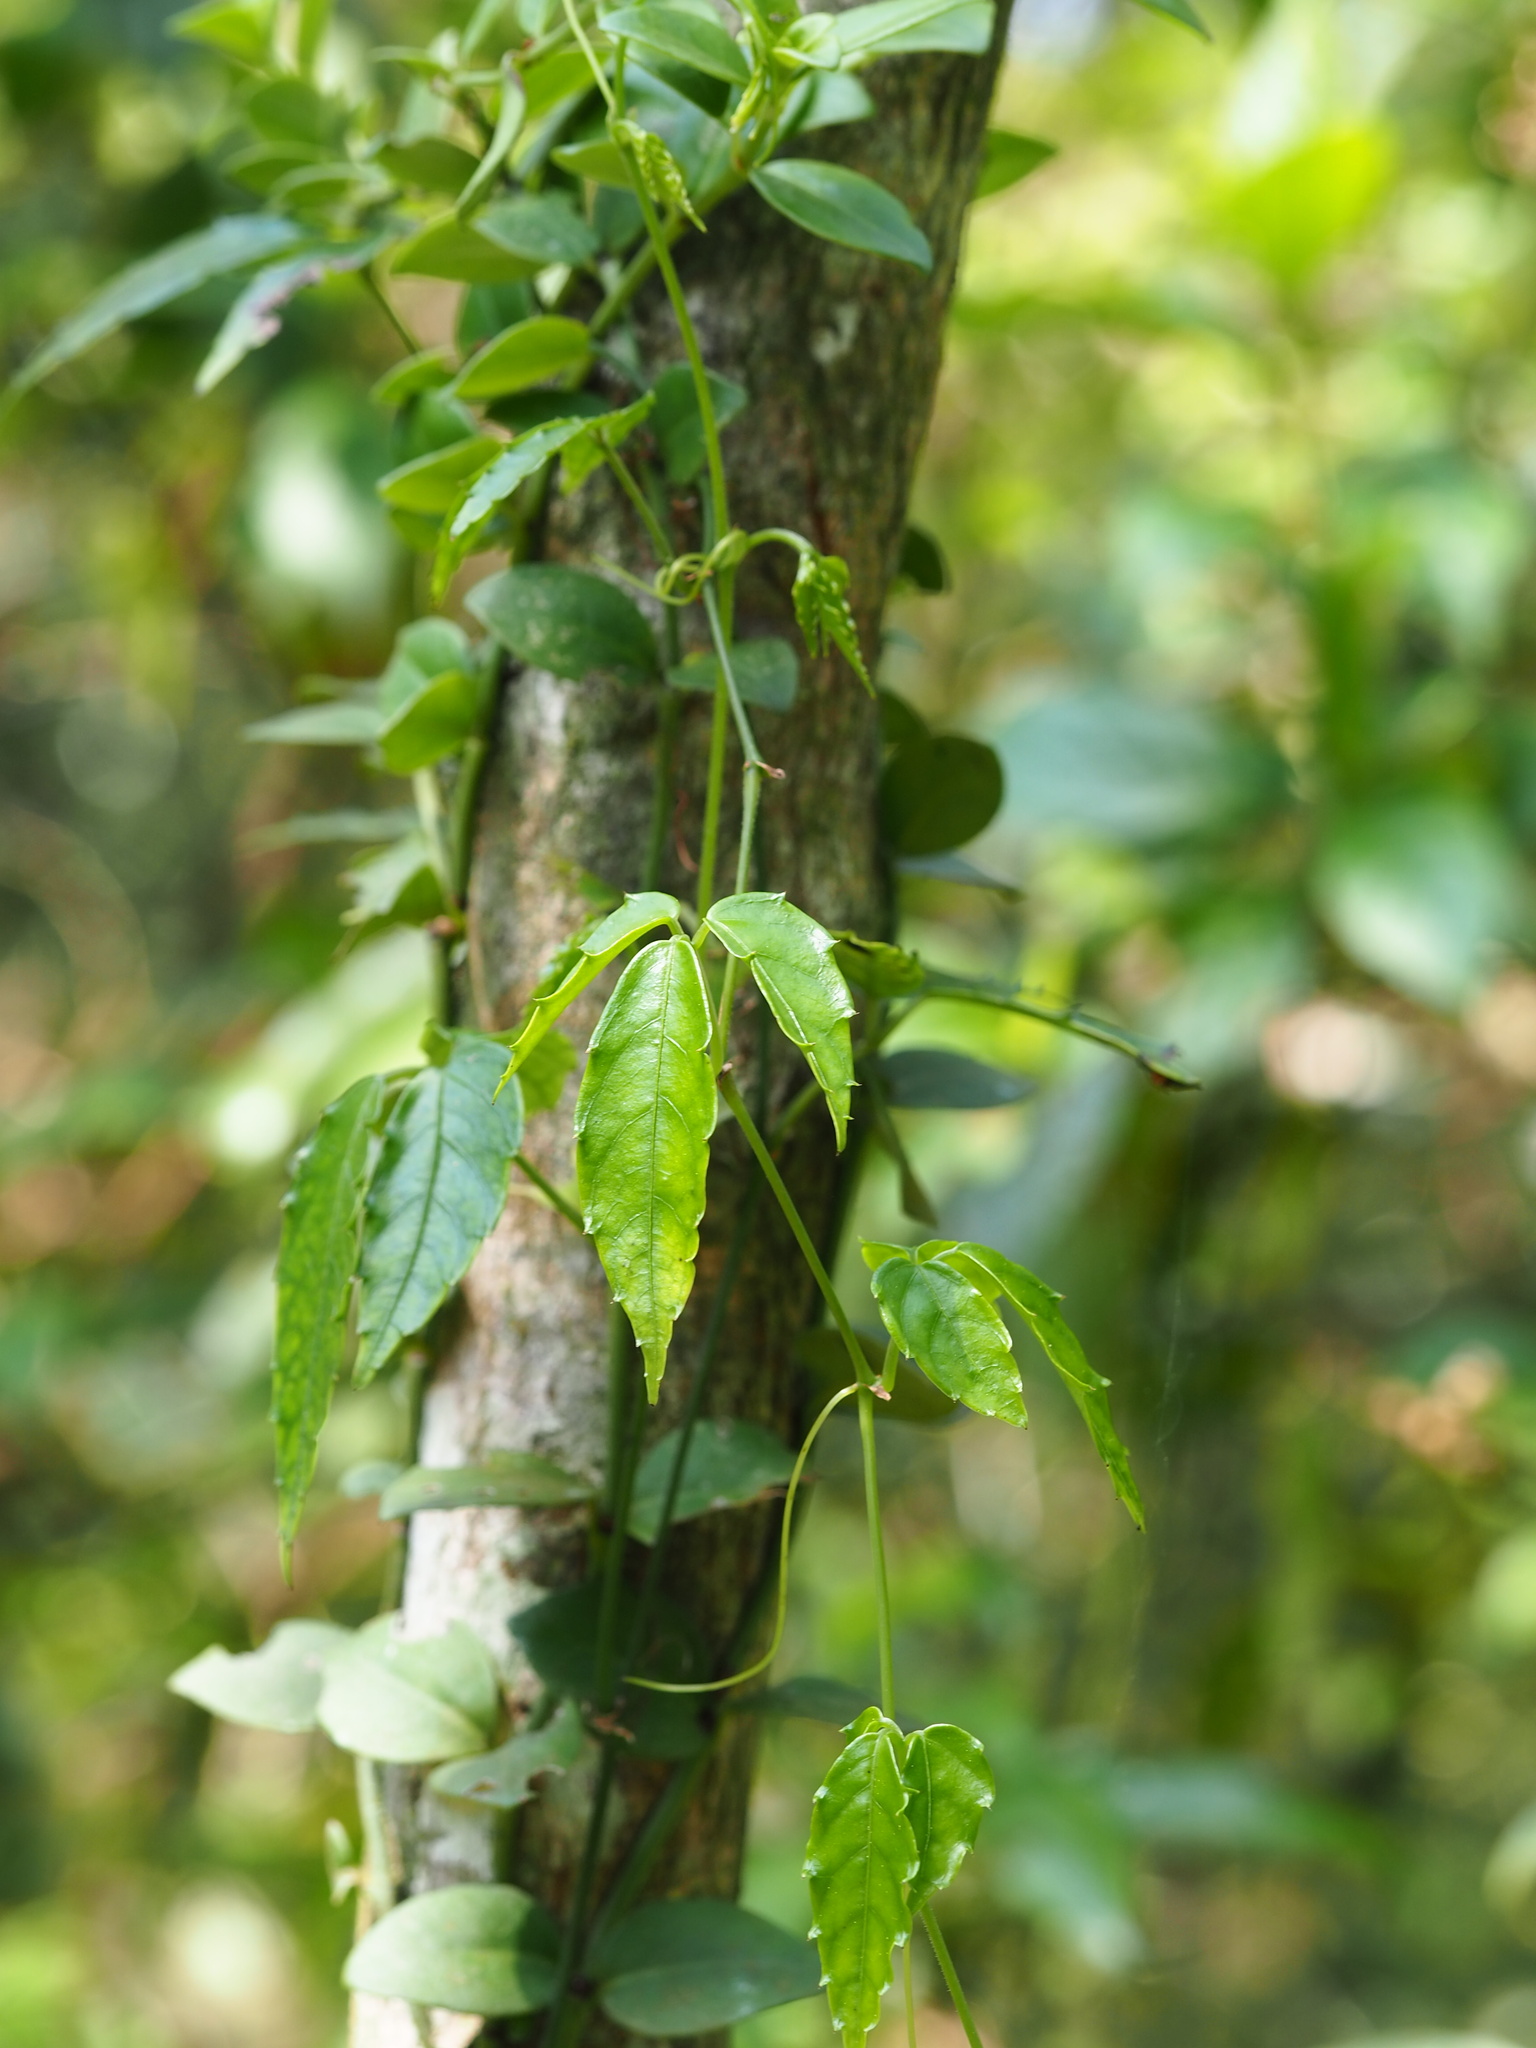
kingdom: Plantae
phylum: Tracheophyta
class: Magnoliopsida
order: Vitales
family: Vitaceae
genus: Tetrastigma
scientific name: Tetrastigma hemsleyanum
